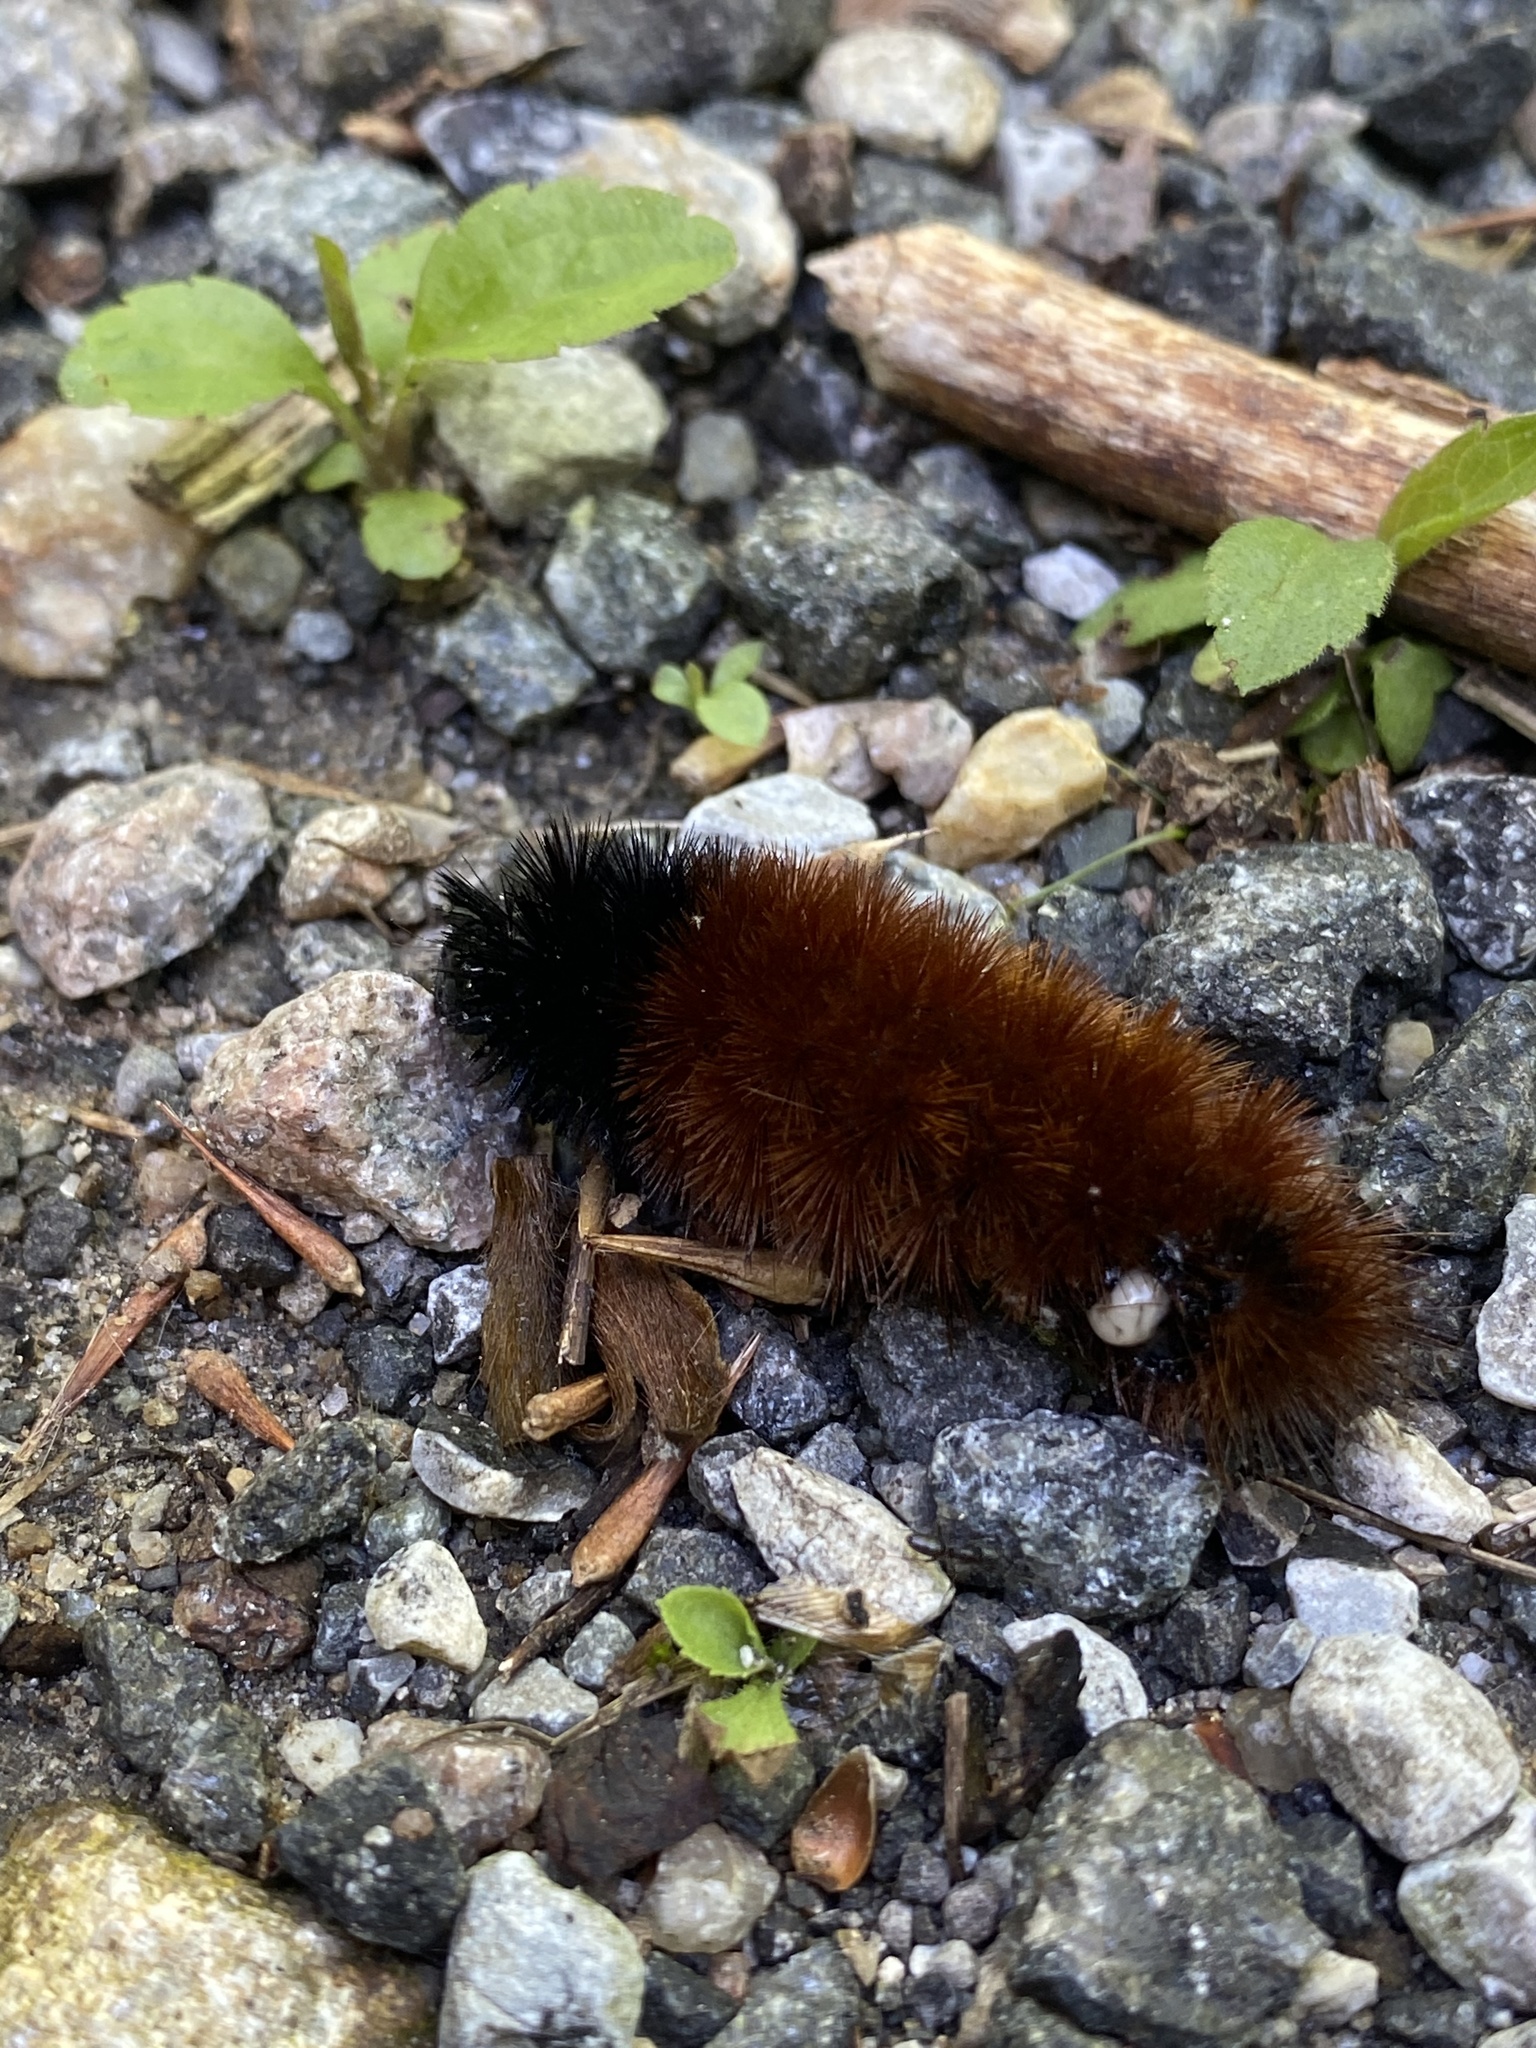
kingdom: Animalia
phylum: Arthropoda
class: Insecta
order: Lepidoptera
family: Erebidae
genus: Pyrrharctia
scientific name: Pyrrharctia isabella
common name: Isabella tiger moth
